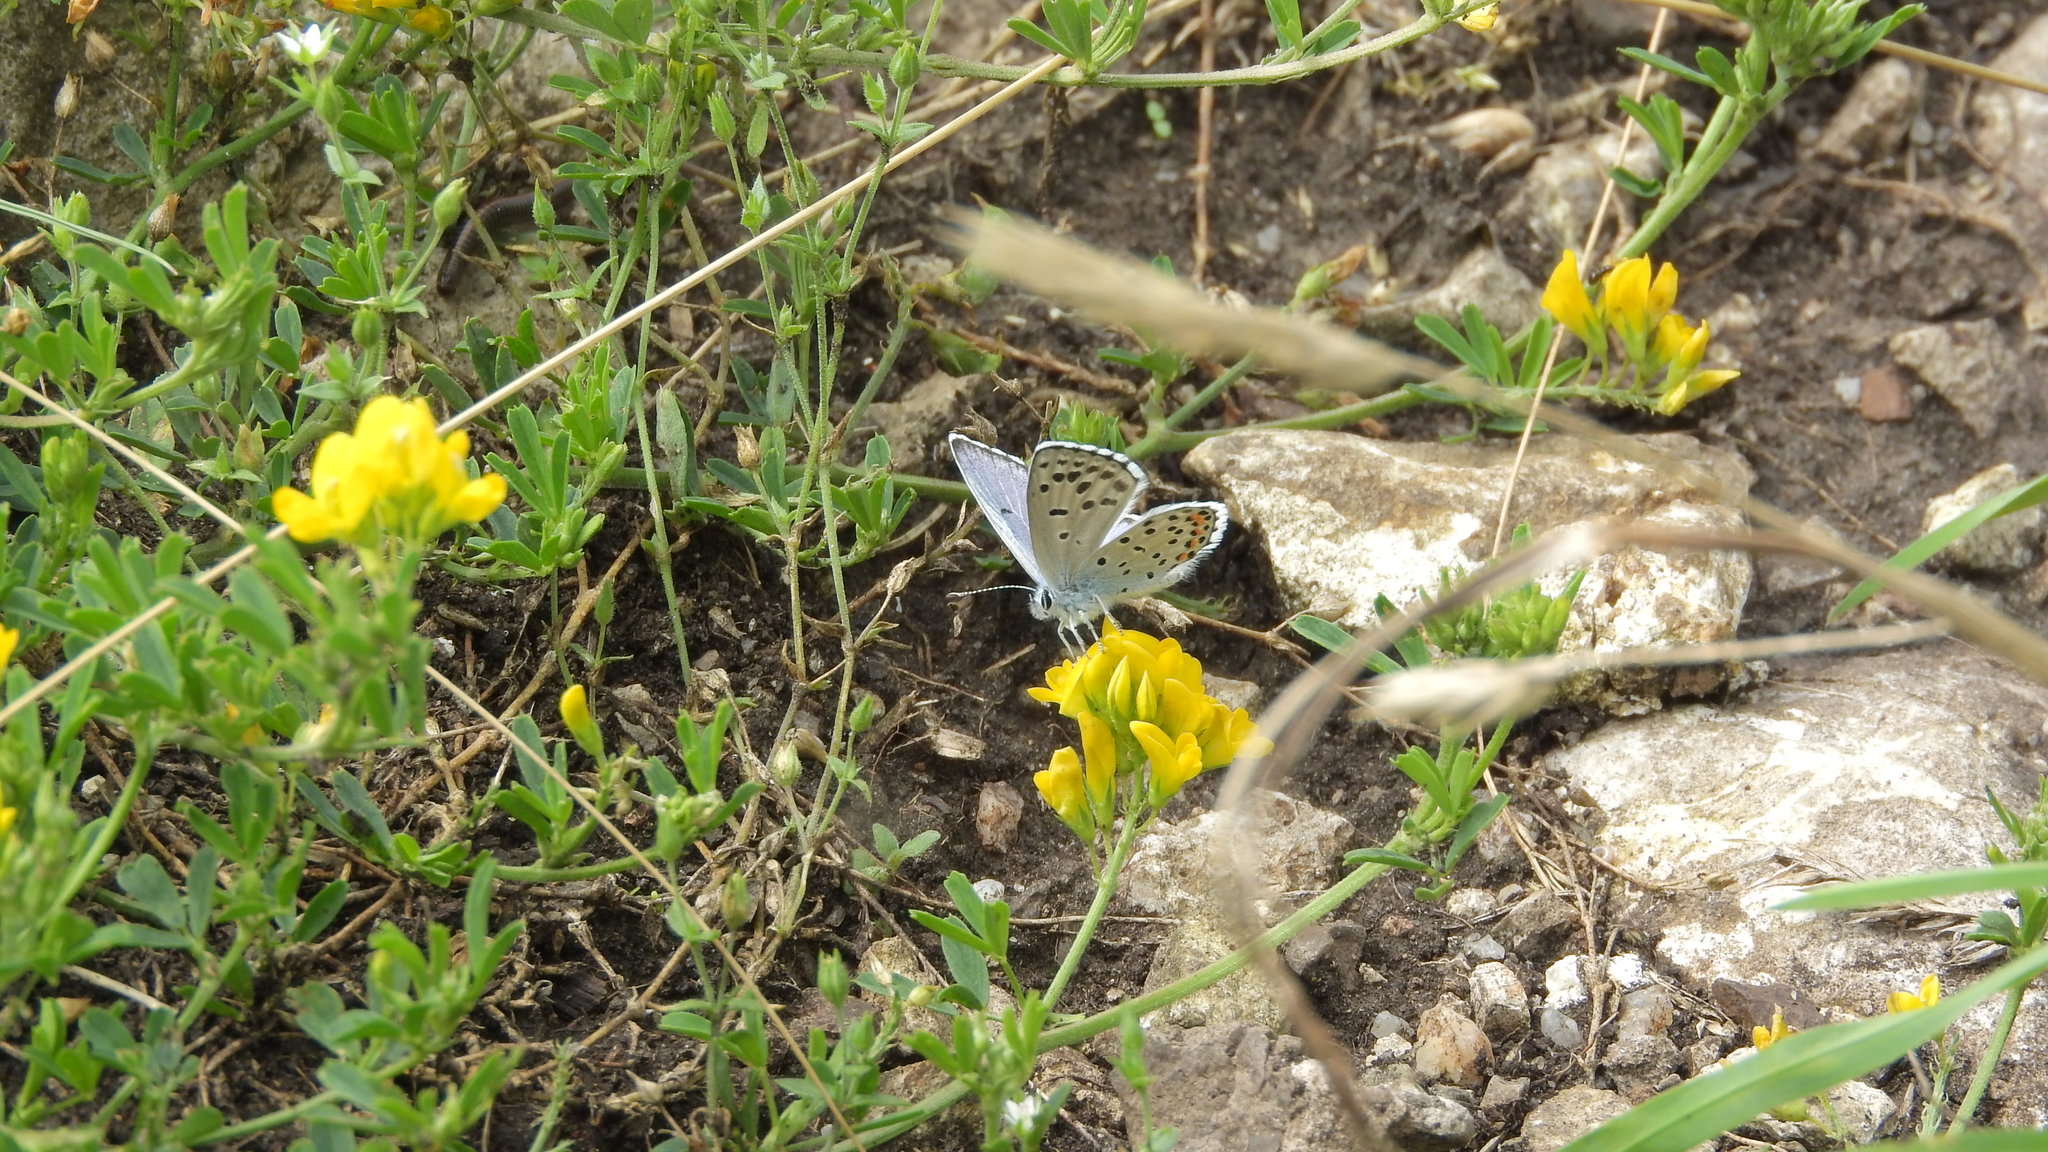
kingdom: Animalia
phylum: Arthropoda
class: Insecta
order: Lepidoptera
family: Lycaenidae
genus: Pseudophilotes
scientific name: Pseudophilotes baton
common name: Baton blue
